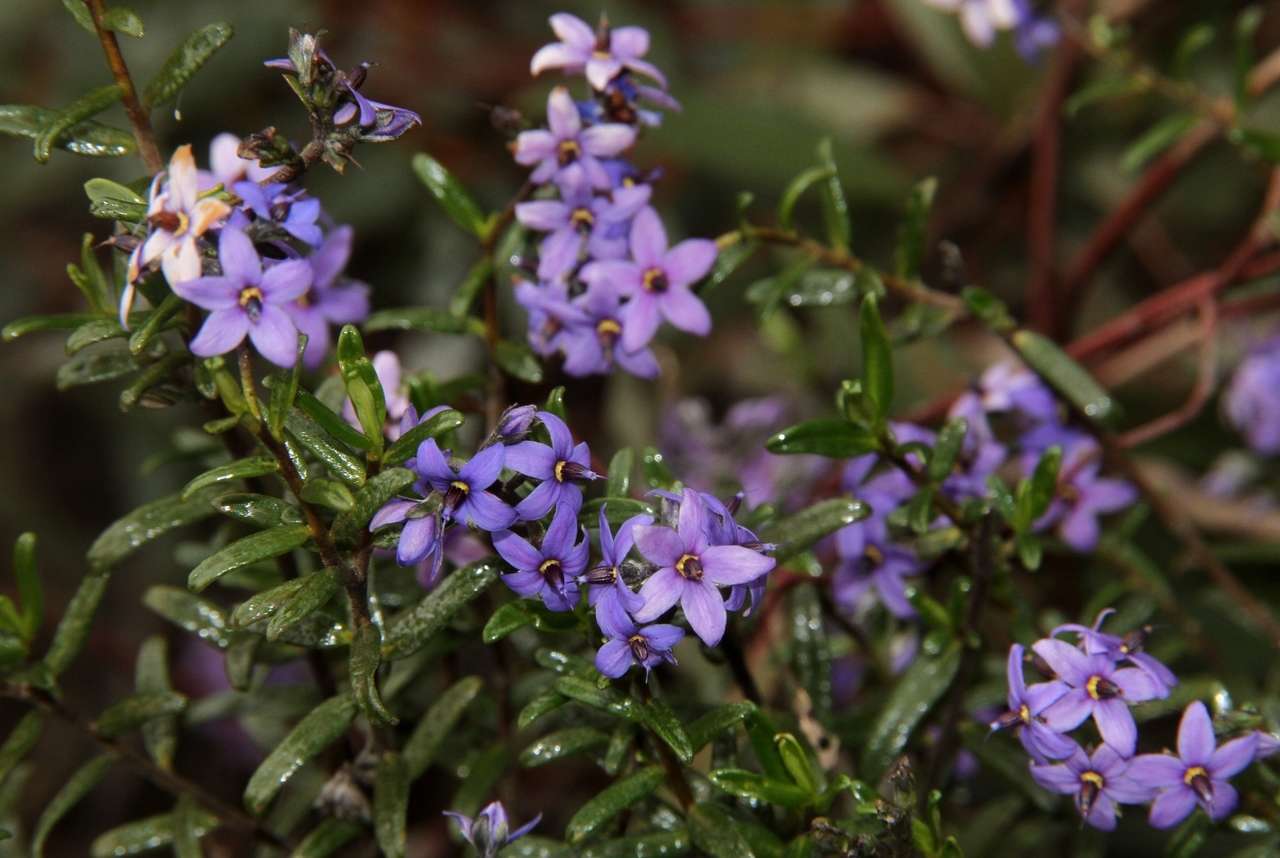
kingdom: Plantae
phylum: Tracheophyta
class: Magnoliopsida
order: Boraginales
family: Ehretiaceae
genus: Halgania
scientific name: Halgania andromedifolia
